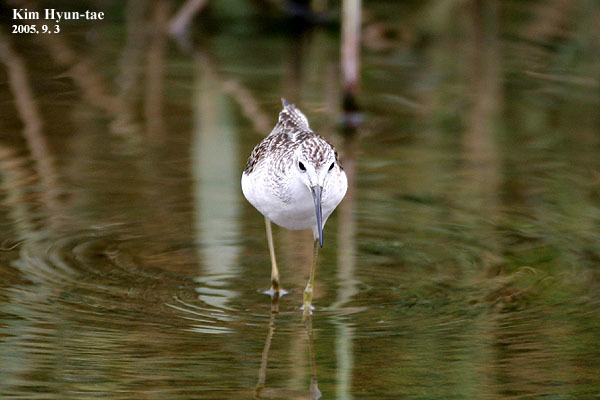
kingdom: Animalia
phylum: Chordata
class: Aves
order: Charadriiformes
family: Scolopacidae
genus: Tringa
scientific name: Tringa stagnatilis
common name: Marsh sandpiper
